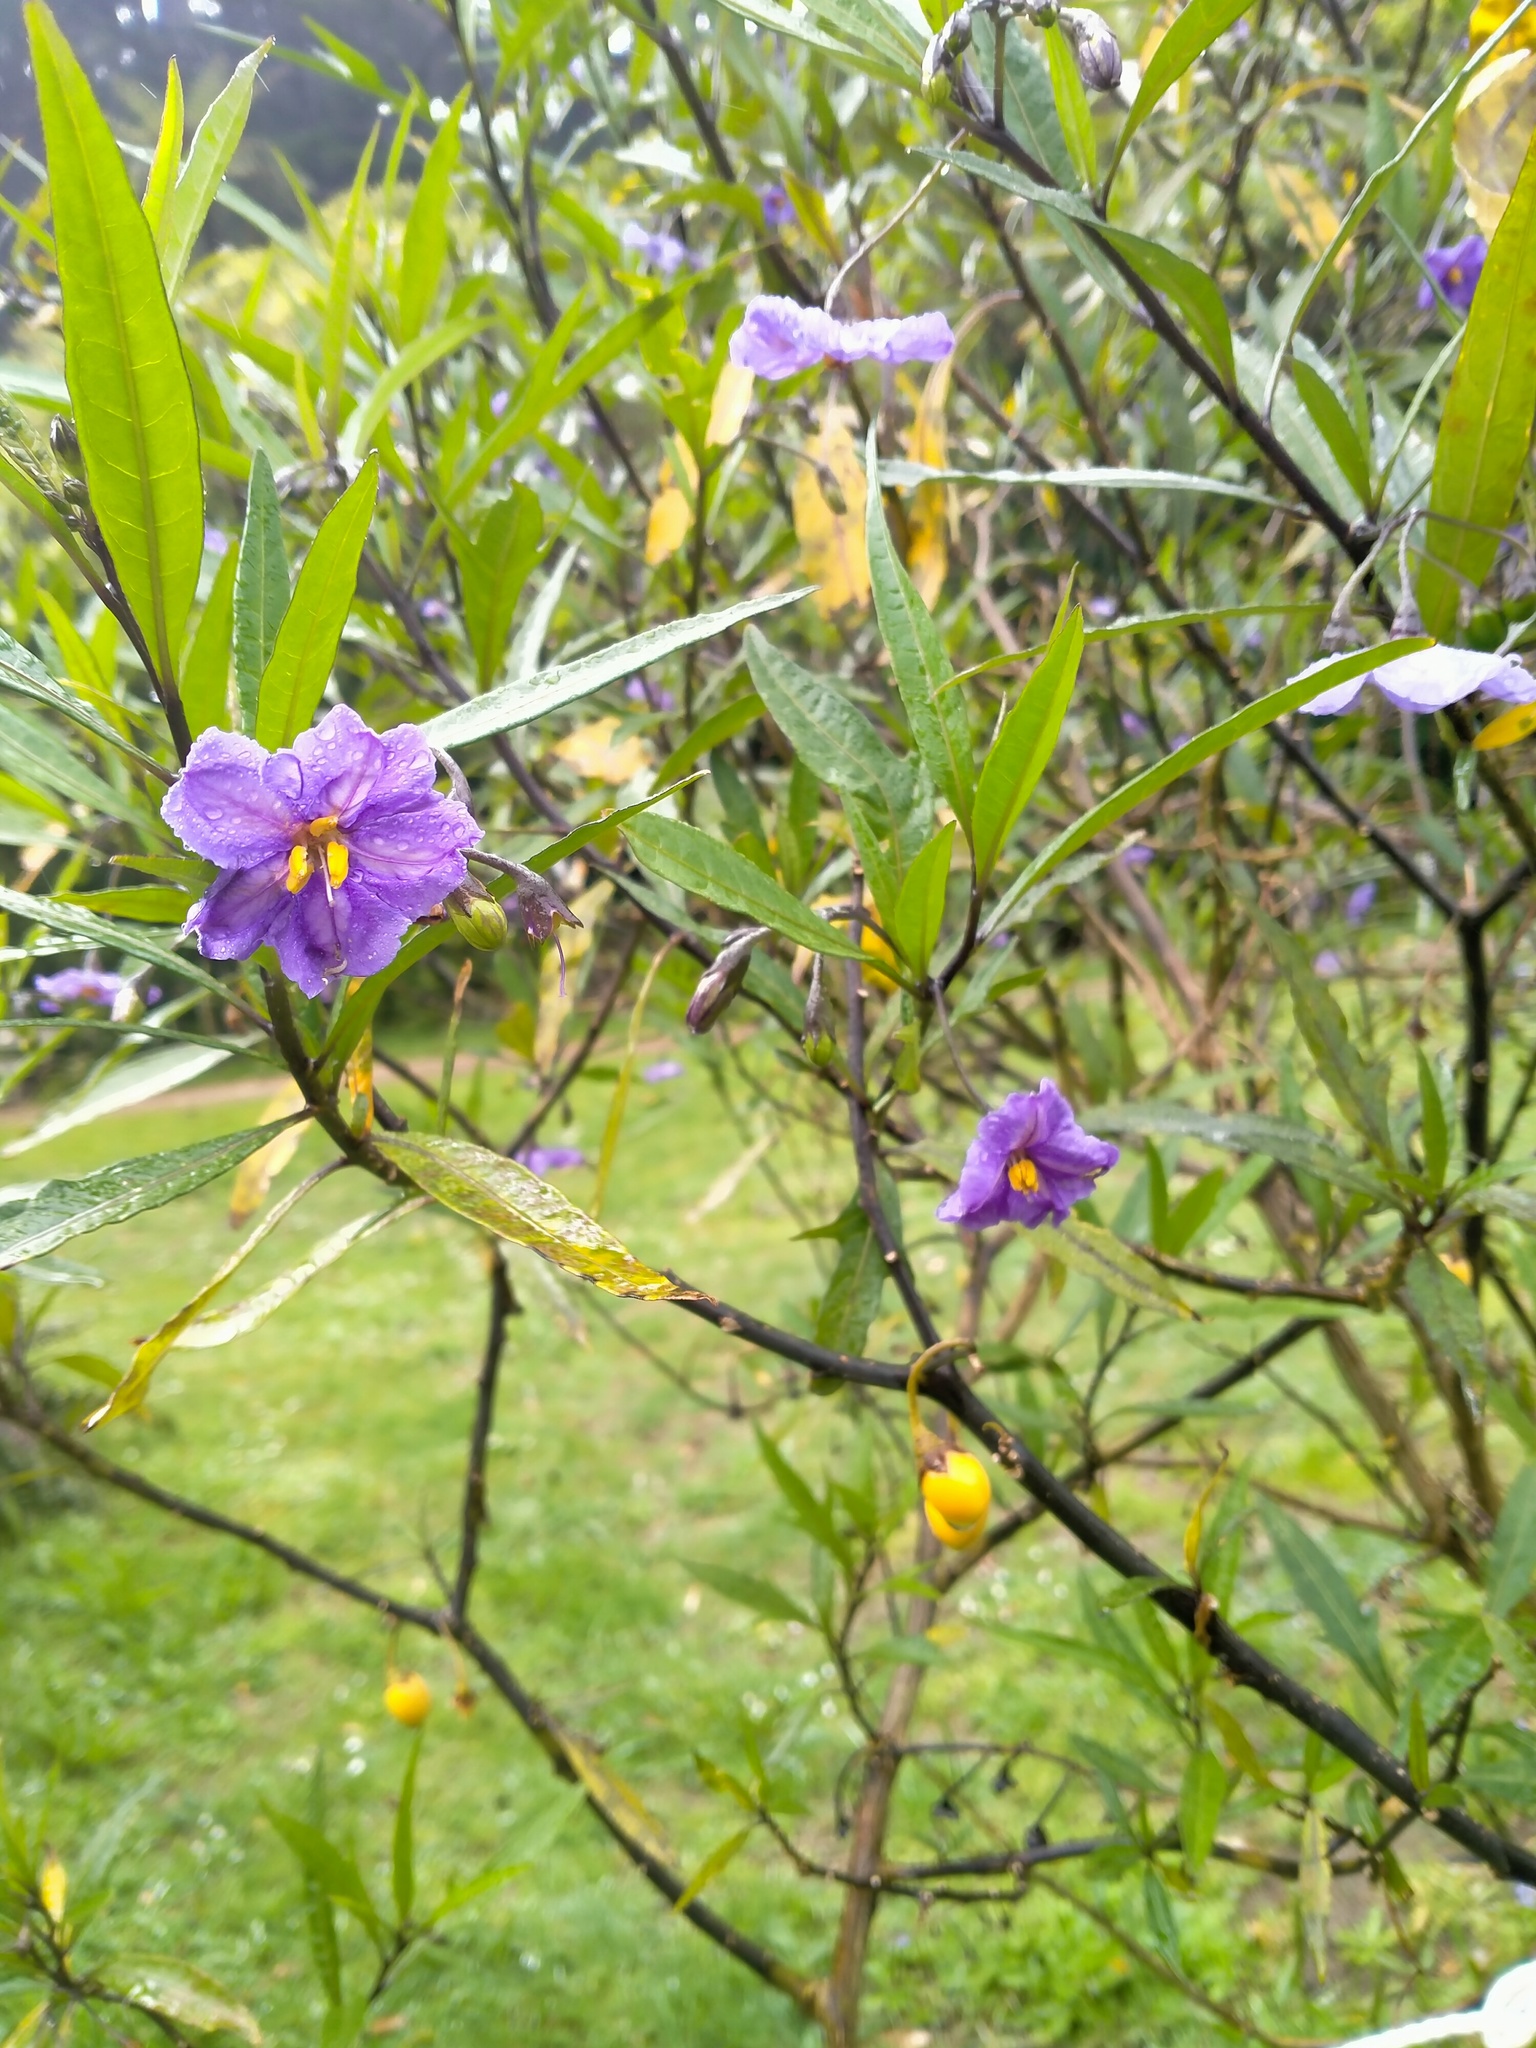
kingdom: Plantae
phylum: Tracheophyta
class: Magnoliopsida
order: Solanales
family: Solanaceae
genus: Solanum
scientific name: Solanum laciniatum
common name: Kangaroo-apple
